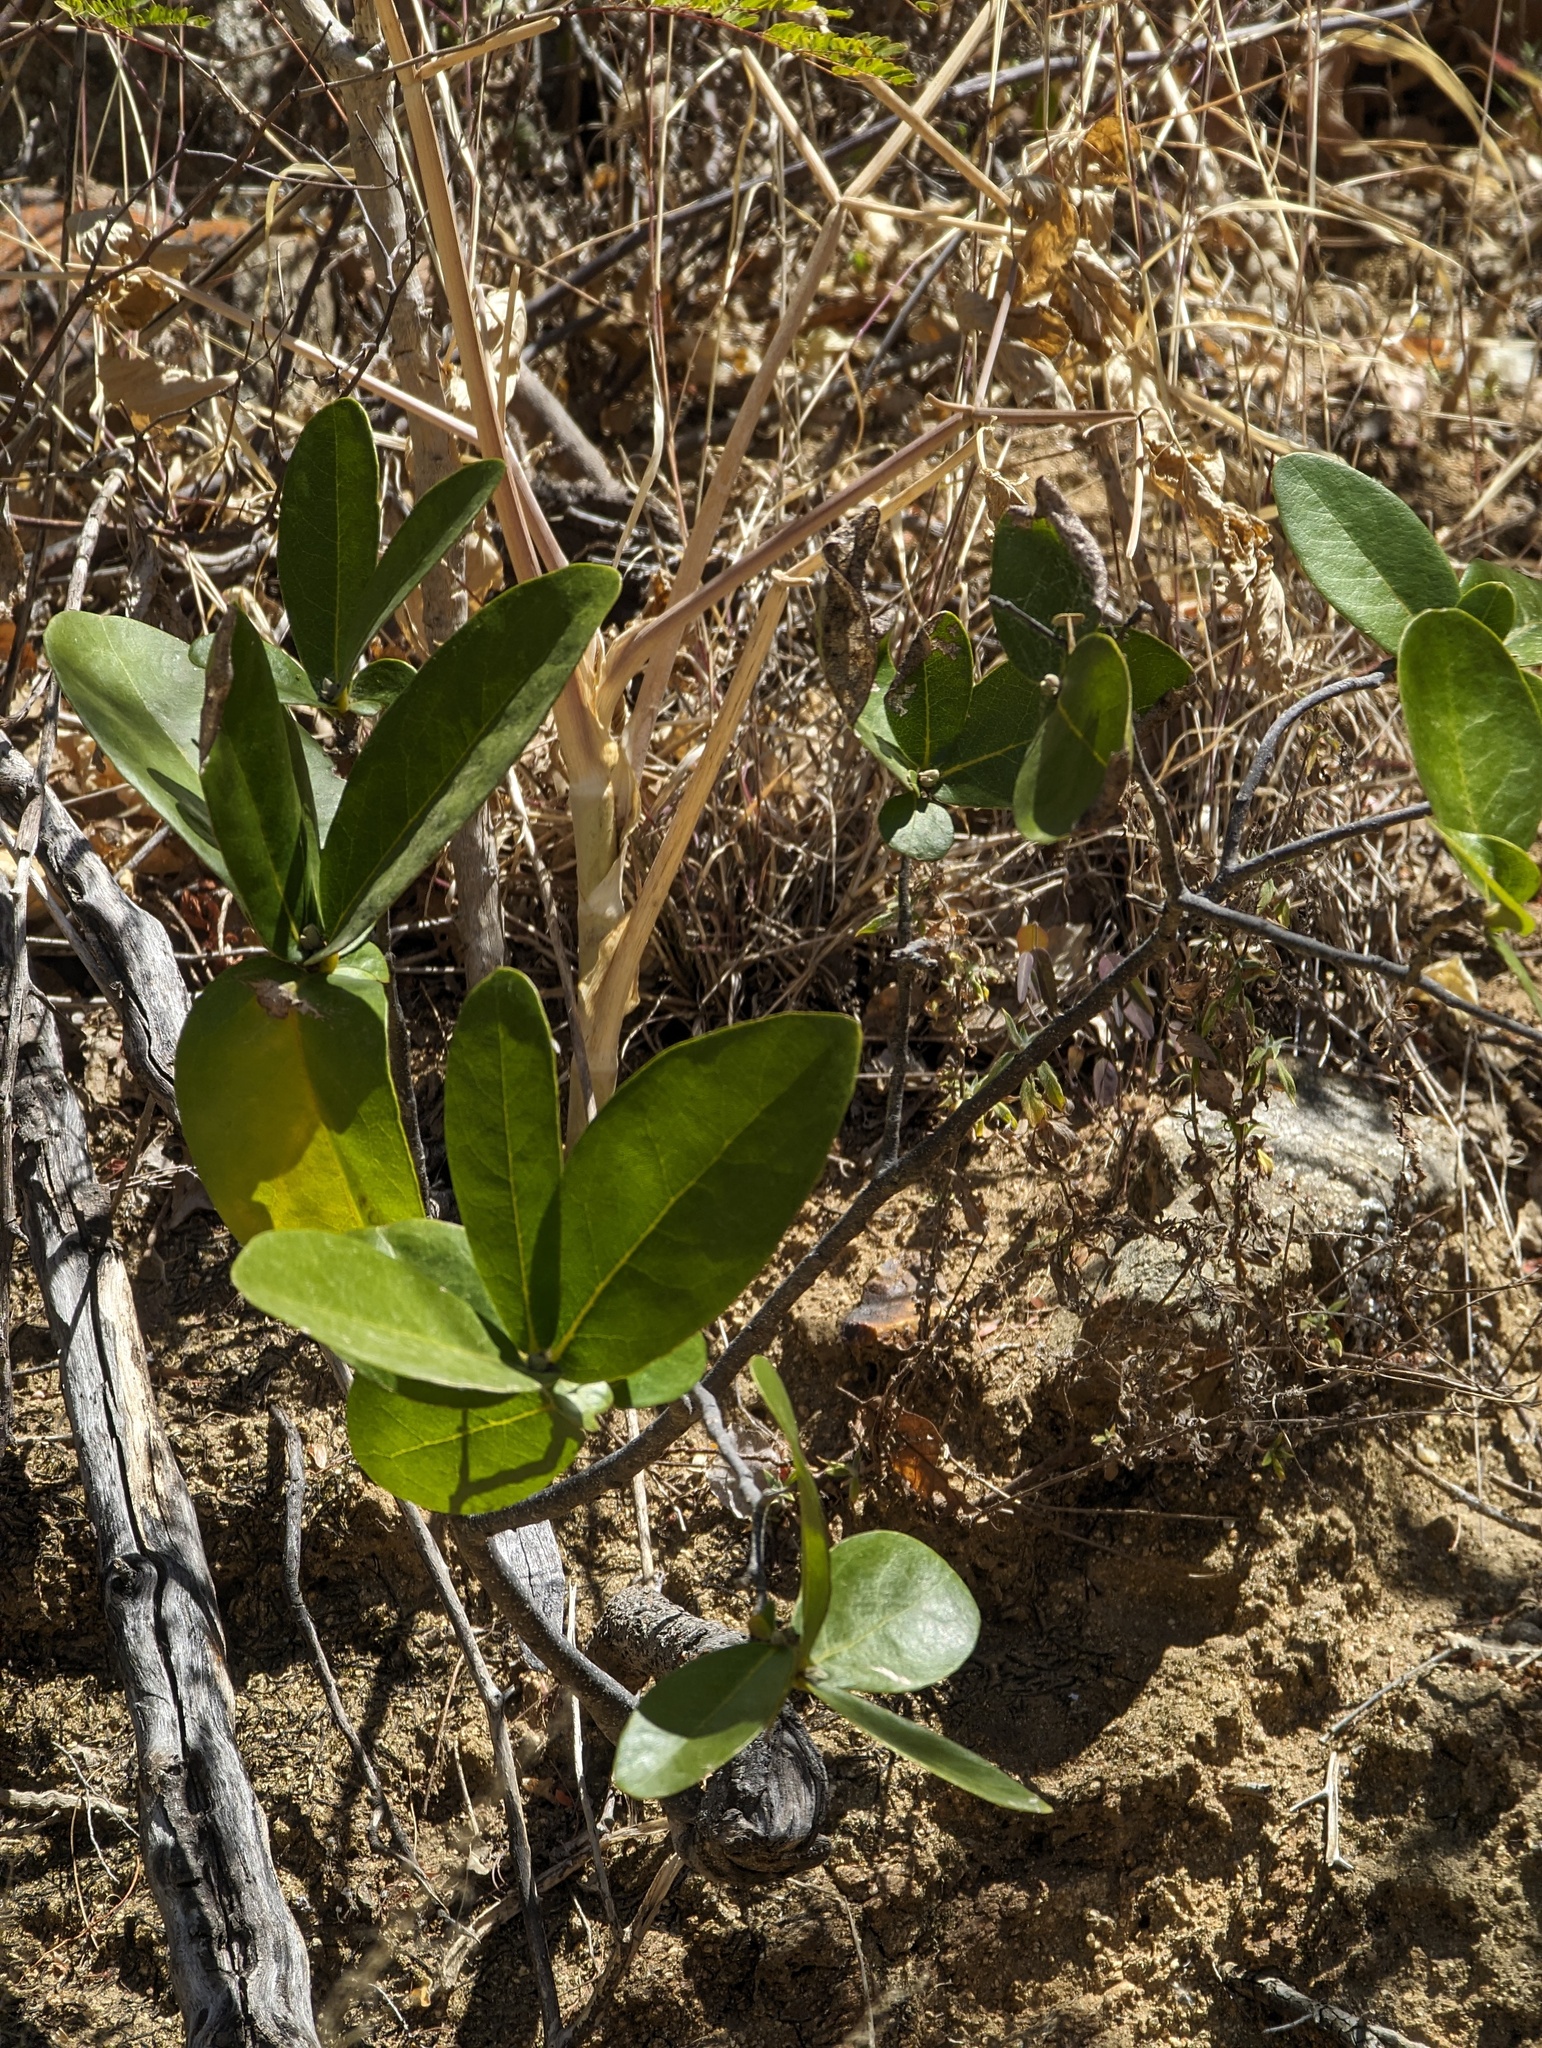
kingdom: Plantae
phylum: Tracheophyta
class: Magnoliopsida
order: Malvales
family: Thymelaeaceae
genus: Daphnopsis
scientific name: Daphnopsis lagunae
